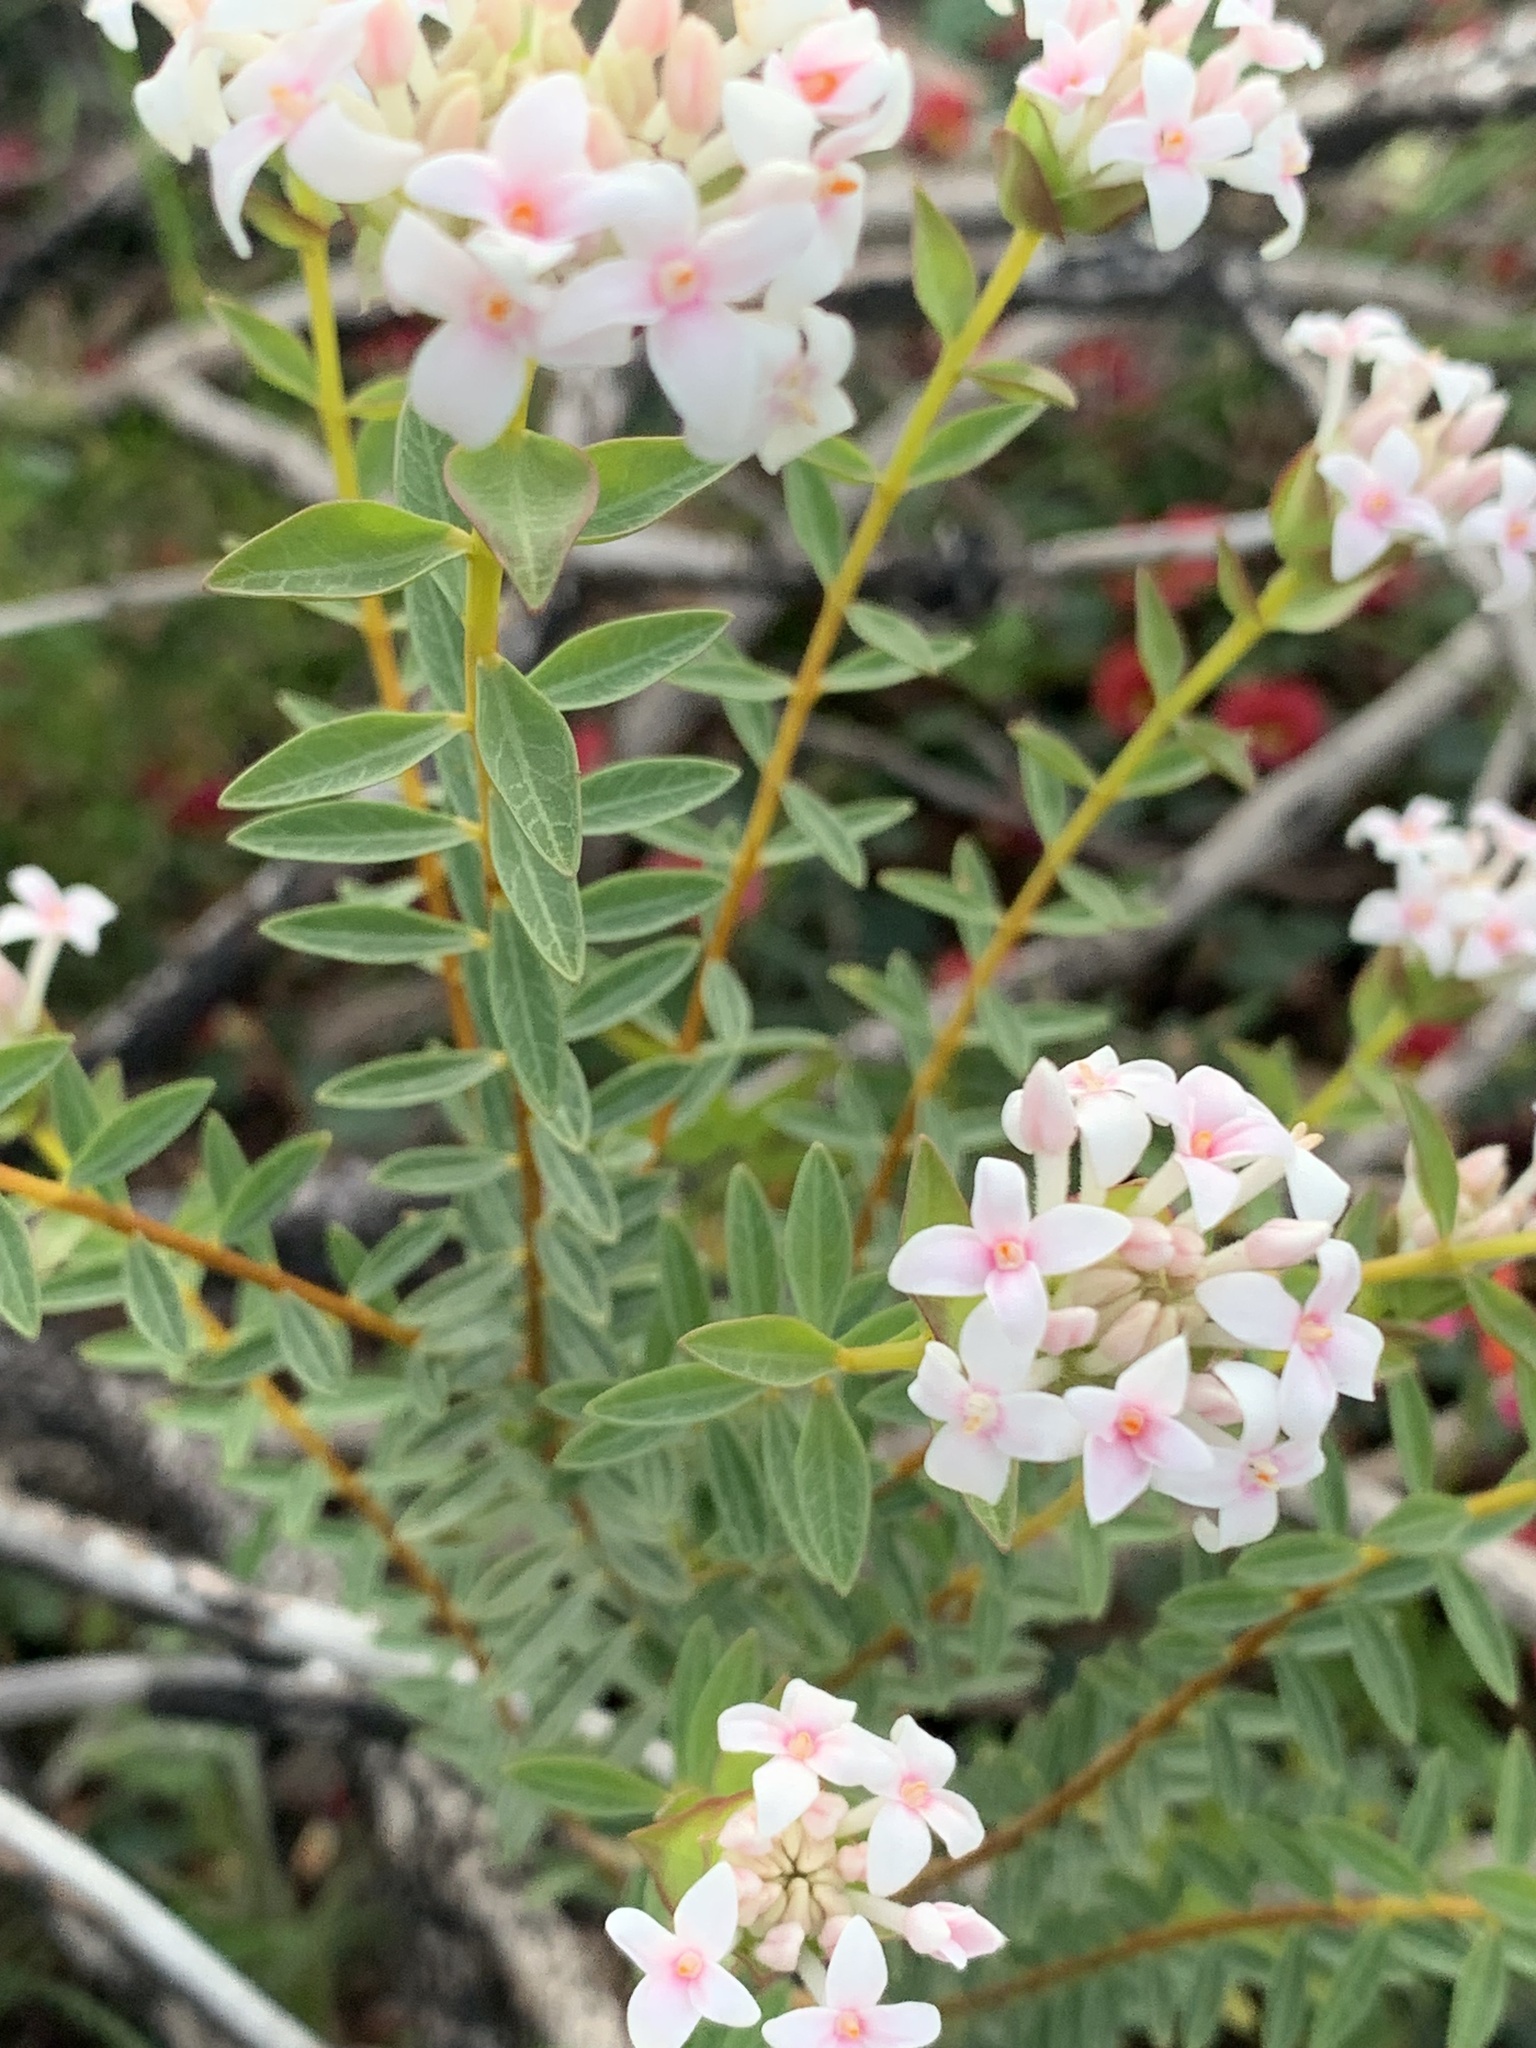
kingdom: Plantae
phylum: Tracheophyta
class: Magnoliopsida
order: Malvales
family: Thymelaeaceae
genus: Pimelea
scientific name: Pimelea preissii
